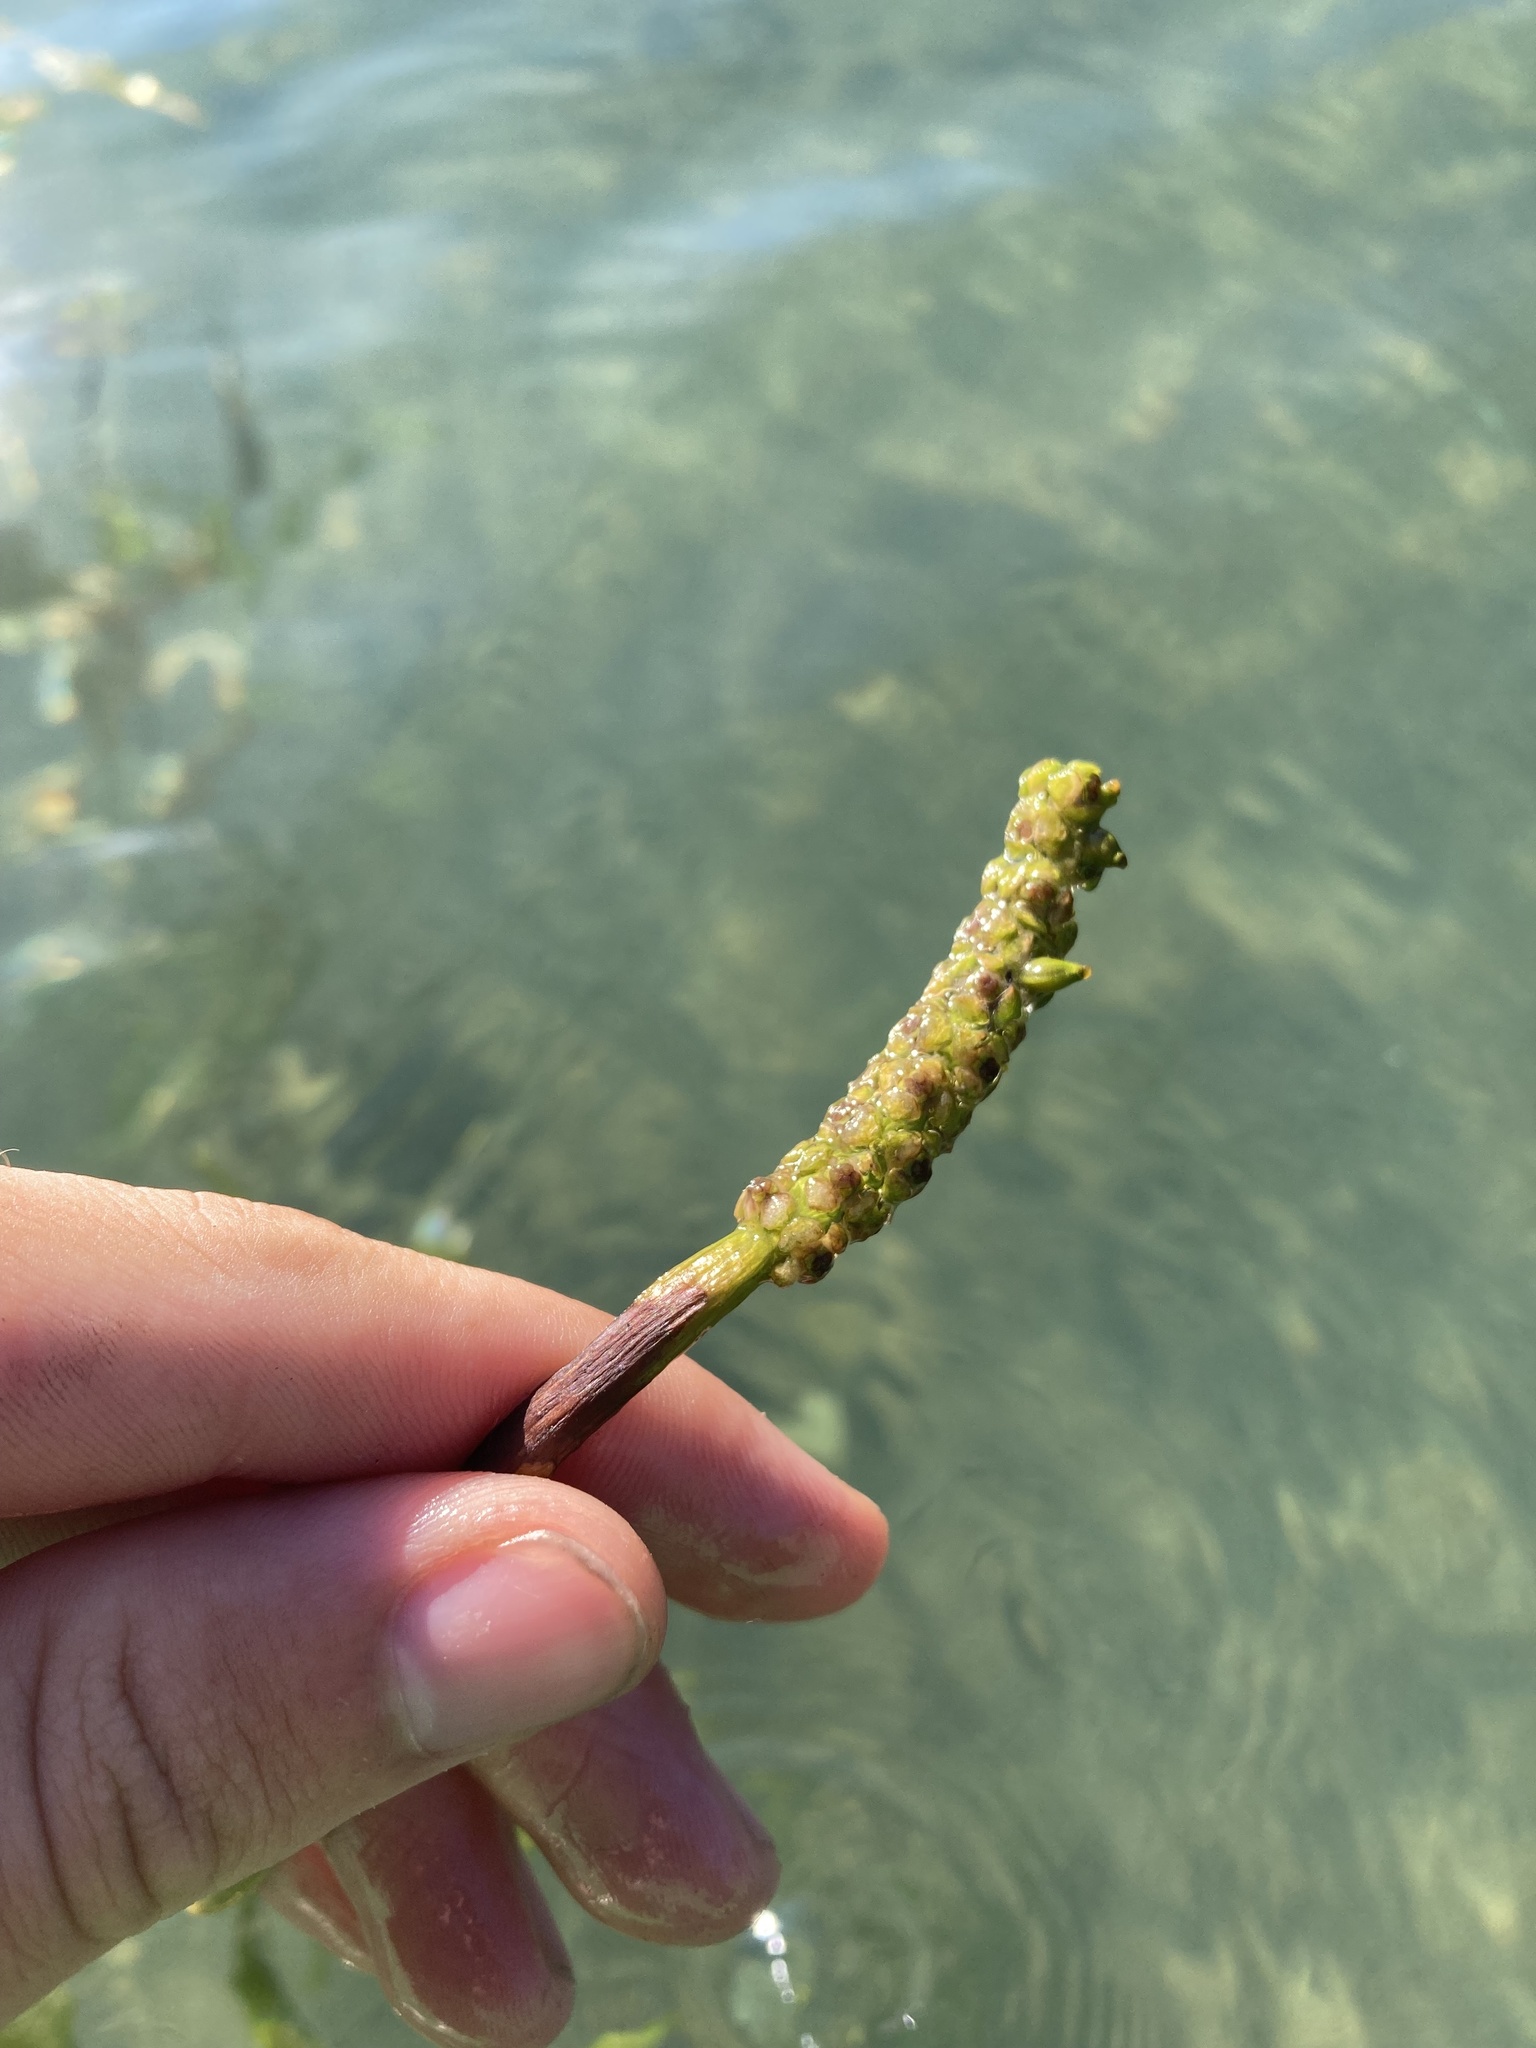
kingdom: Plantae
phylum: Tracheophyta
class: Liliopsida
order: Alismatales
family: Potamogetonaceae
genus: Potamogeton
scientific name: Potamogeton praelongus
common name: Long-stalked pondweed
